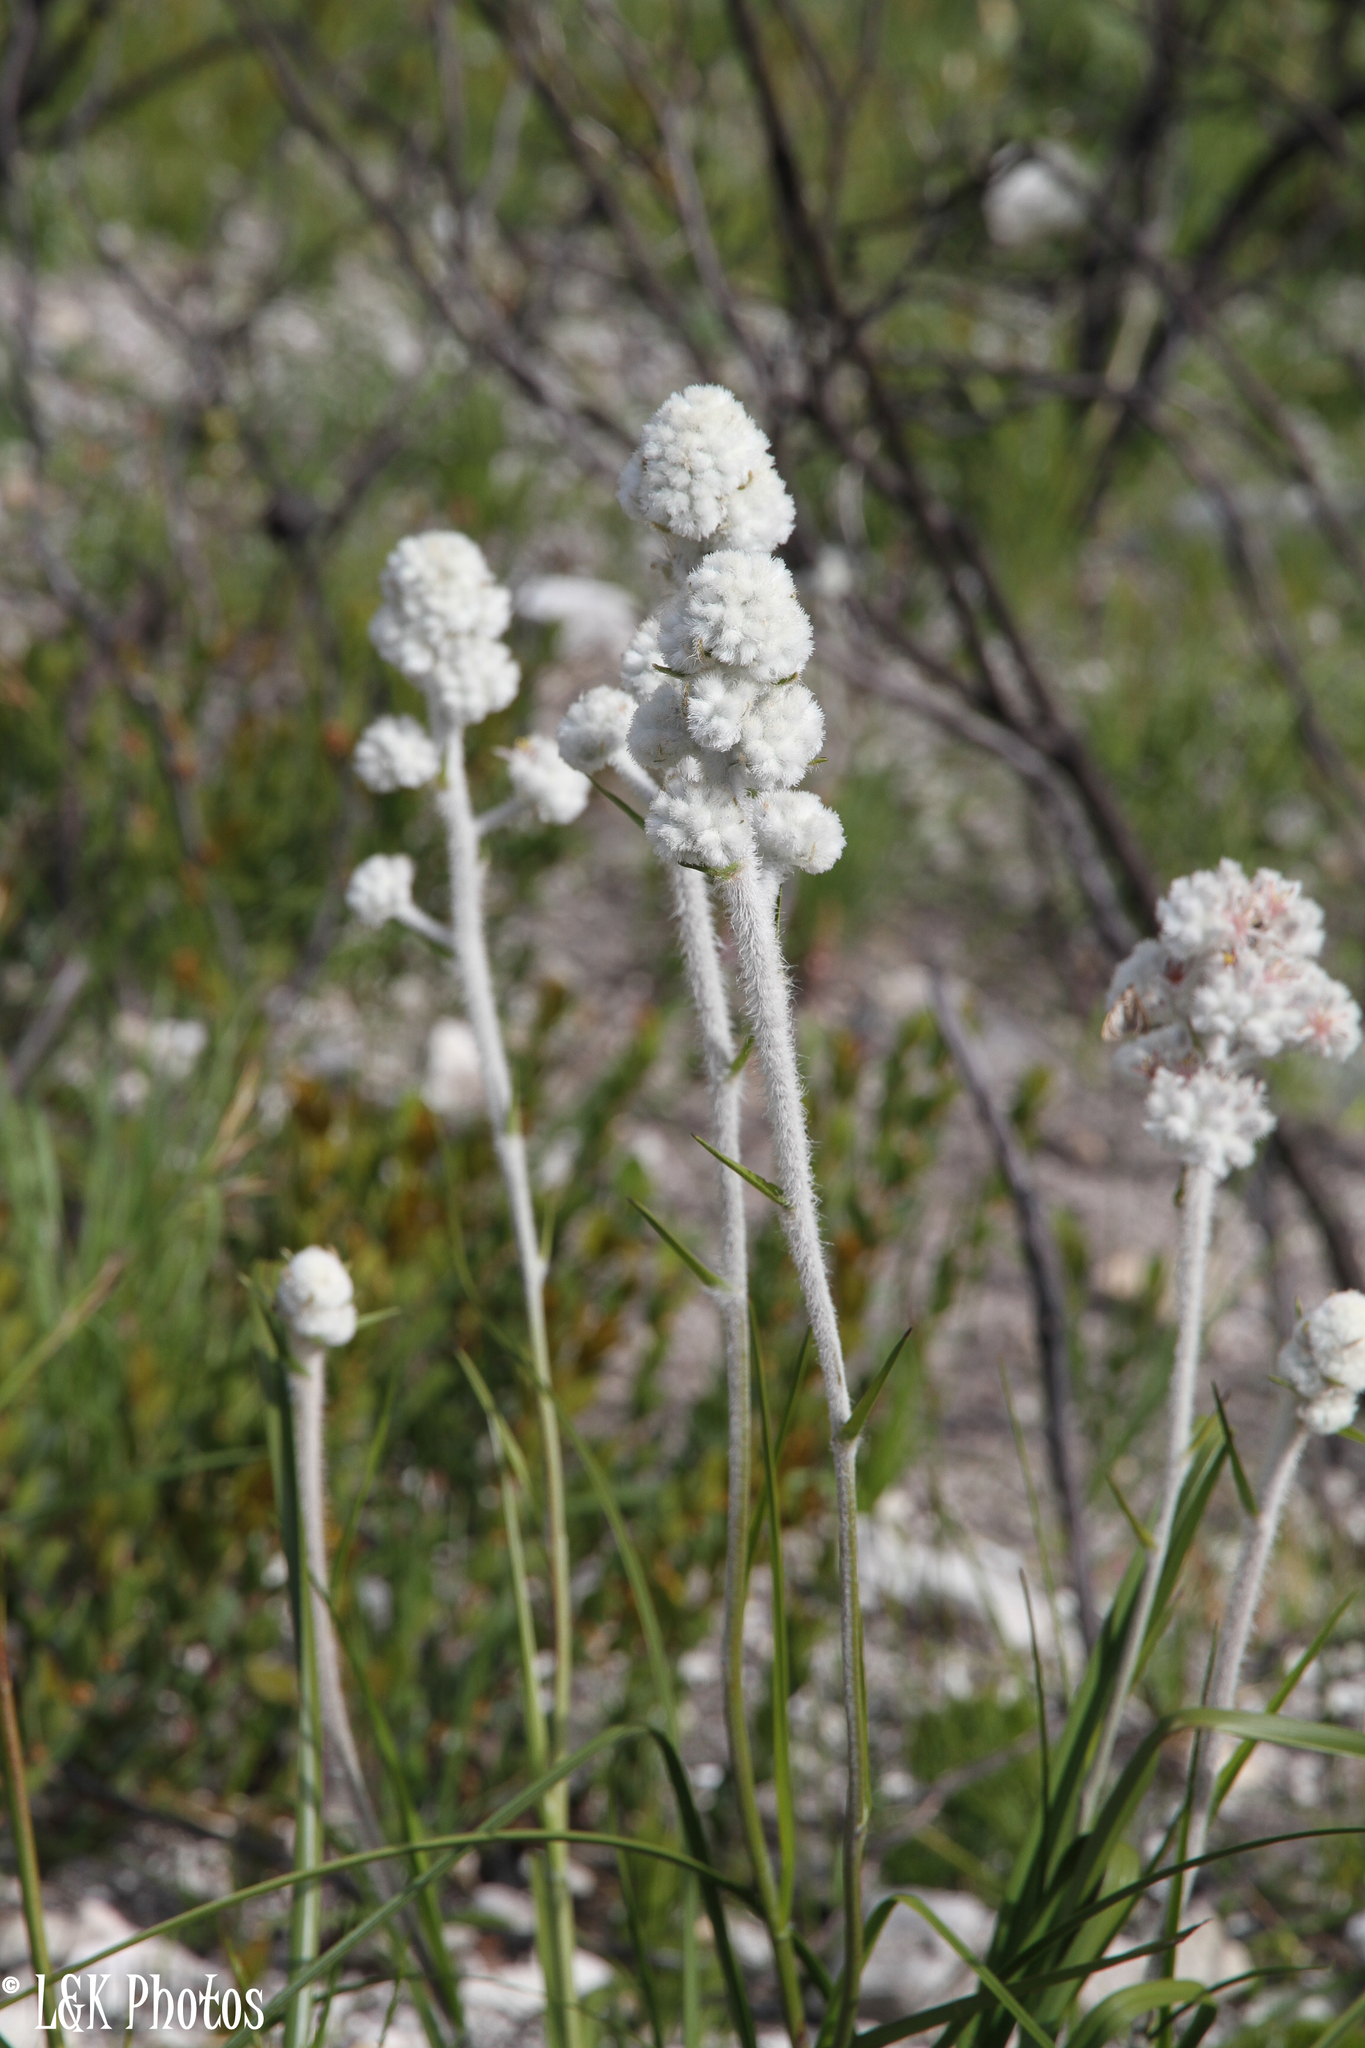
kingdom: Plantae
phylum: Tracheophyta
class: Liliopsida
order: Asparagales
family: Lanariaceae
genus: Lanaria
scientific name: Lanaria lanata
